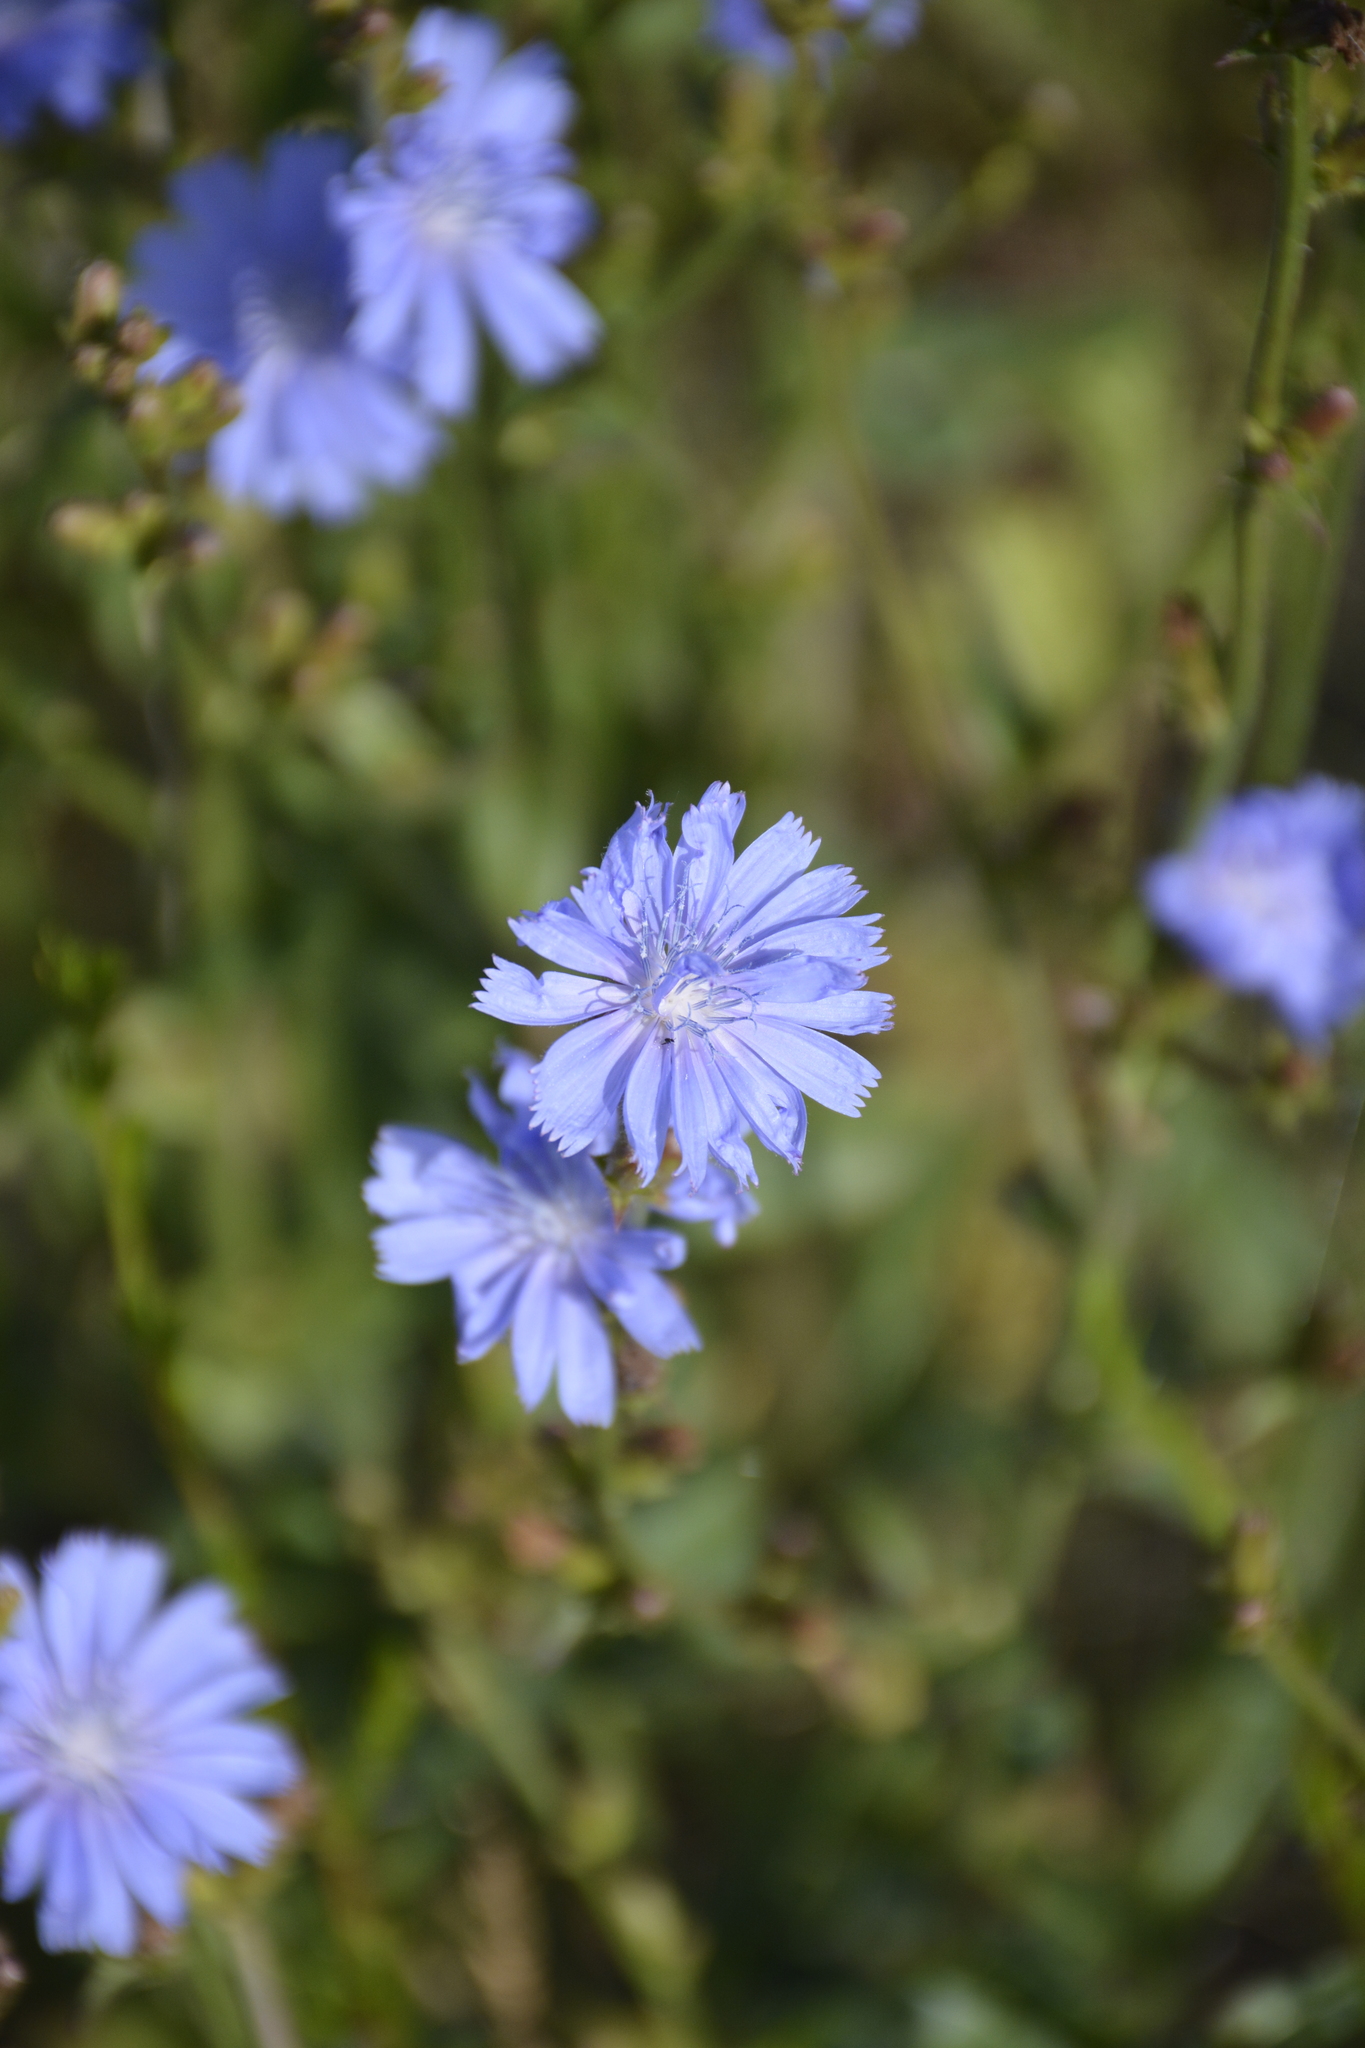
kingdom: Plantae
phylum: Tracheophyta
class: Magnoliopsida
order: Asterales
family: Asteraceae
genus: Cichorium
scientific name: Cichorium intybus
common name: Chicory
